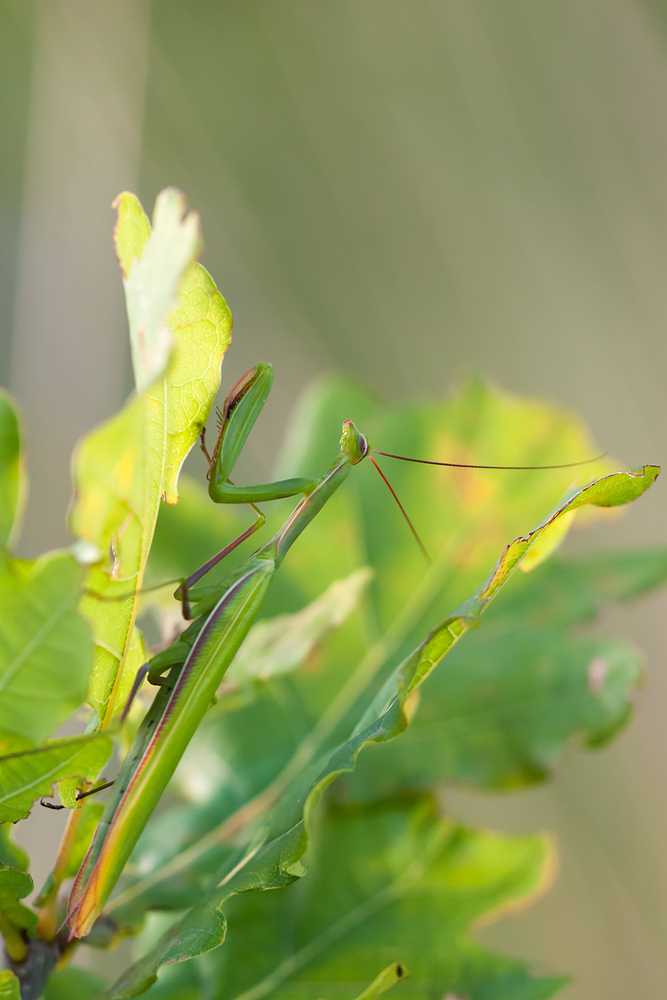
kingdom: Animalia
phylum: Arthropoda
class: Insecta
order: Mantodea
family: Mantidae
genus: Mantis
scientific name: Mantis religiosa
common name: Praying mantis
